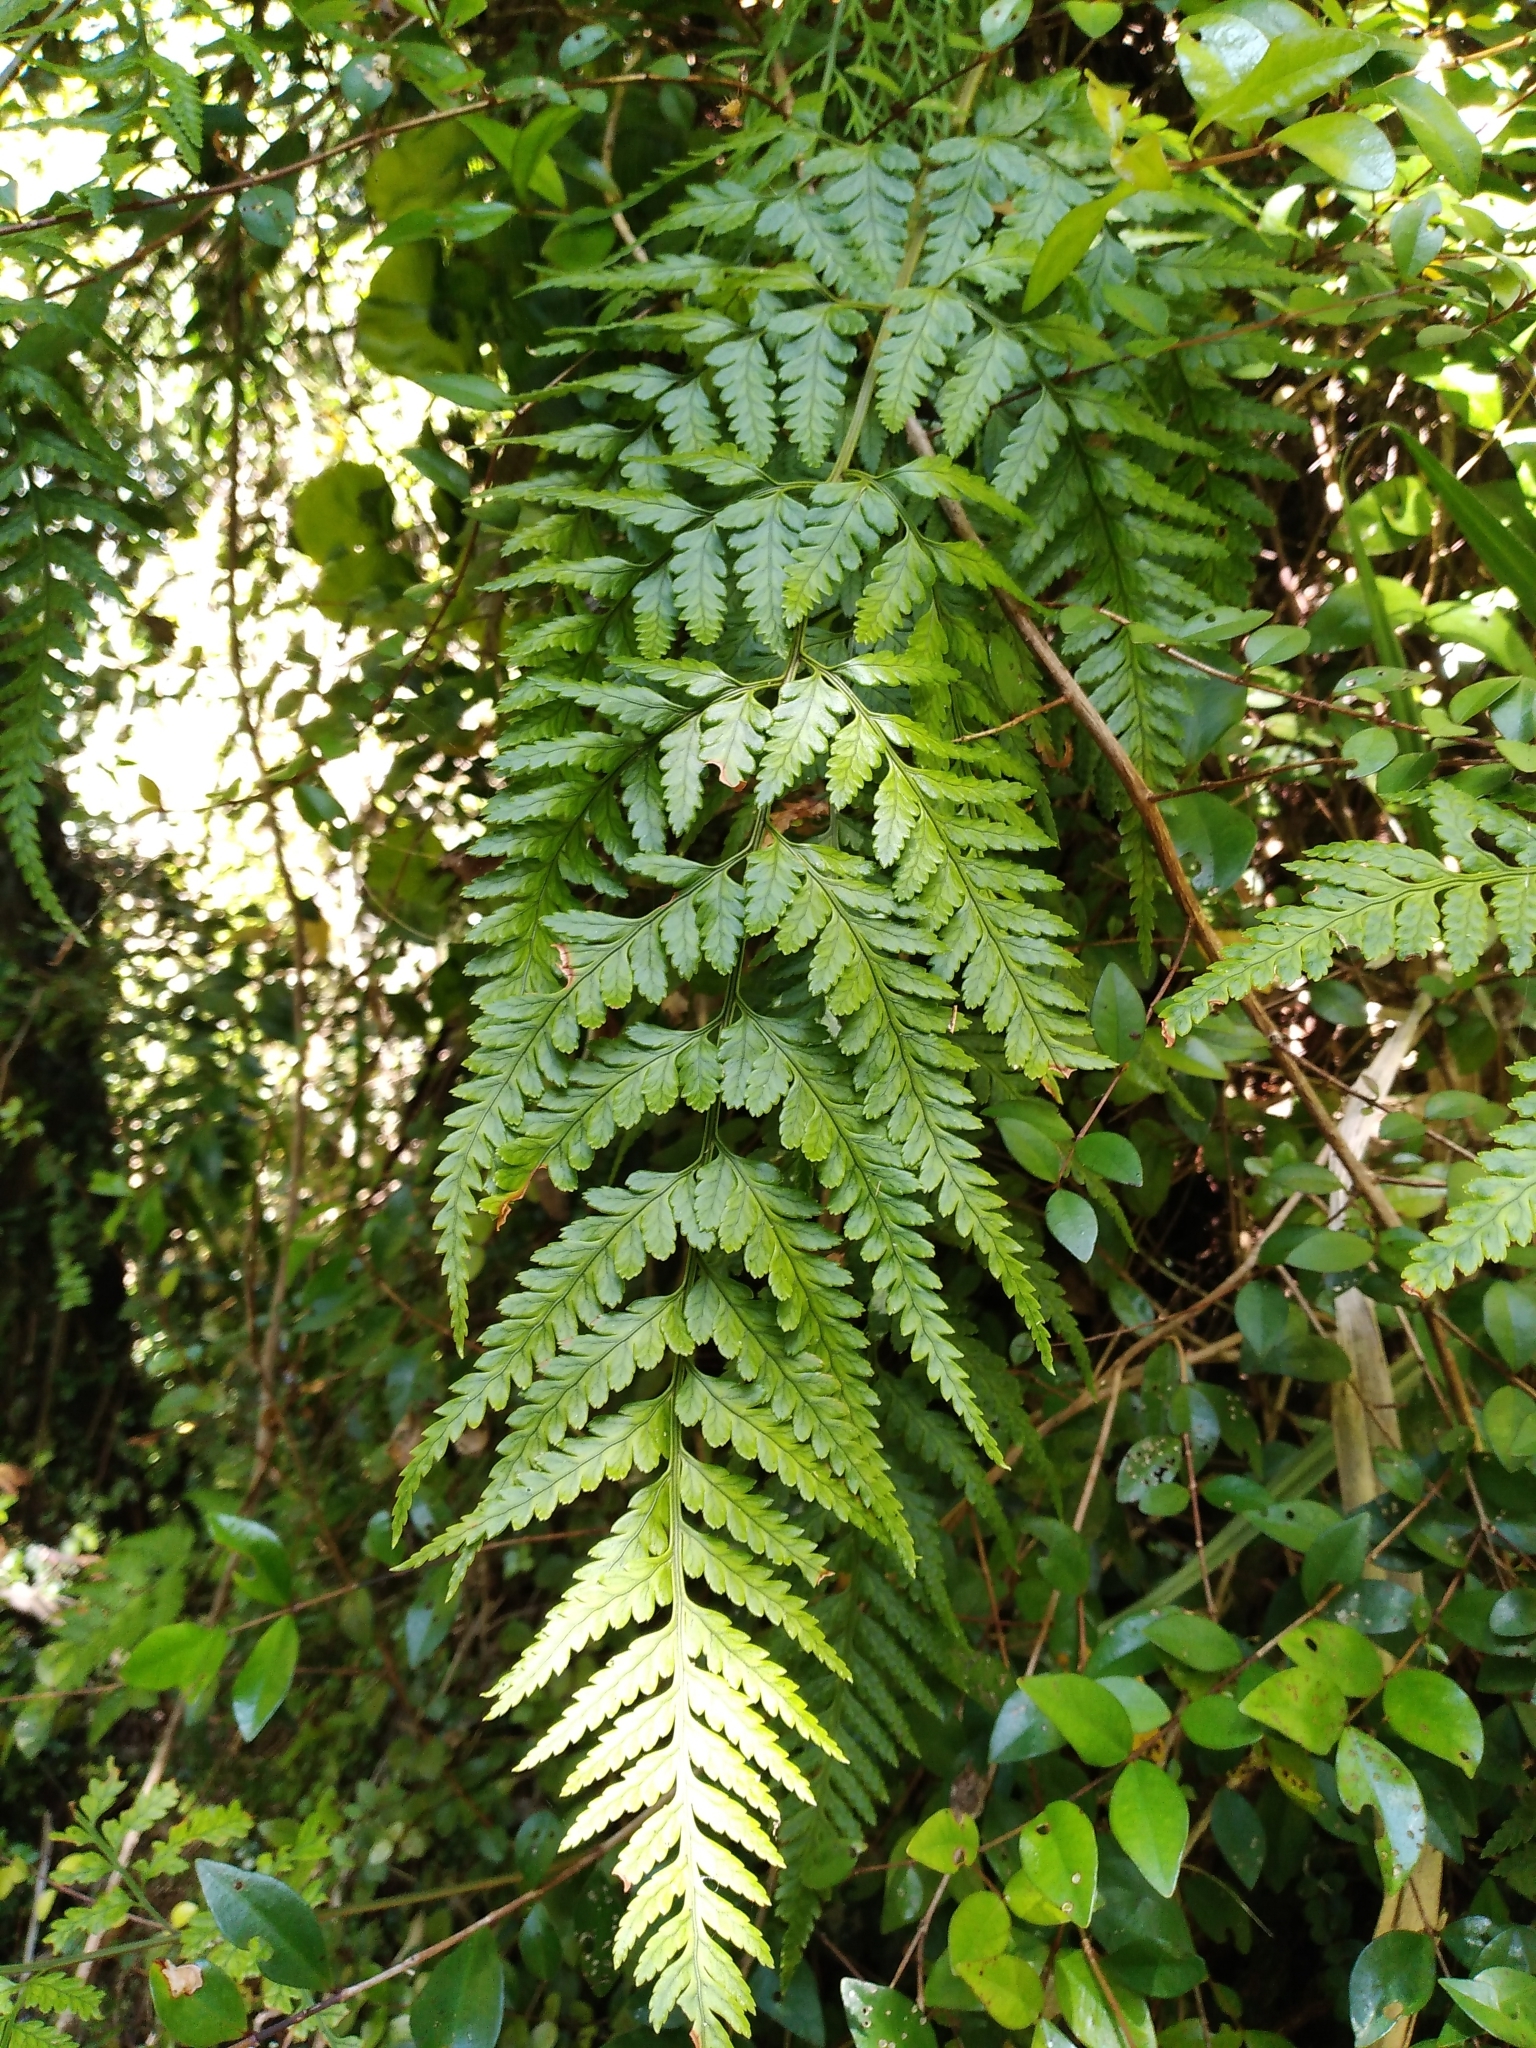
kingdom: Plantae
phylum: Tracheophyta
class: Polypodiopsida
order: Polypodiales
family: Dryopteridaceae
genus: Rumohra
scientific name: Rumohra adiantiformis
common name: Leather fern
